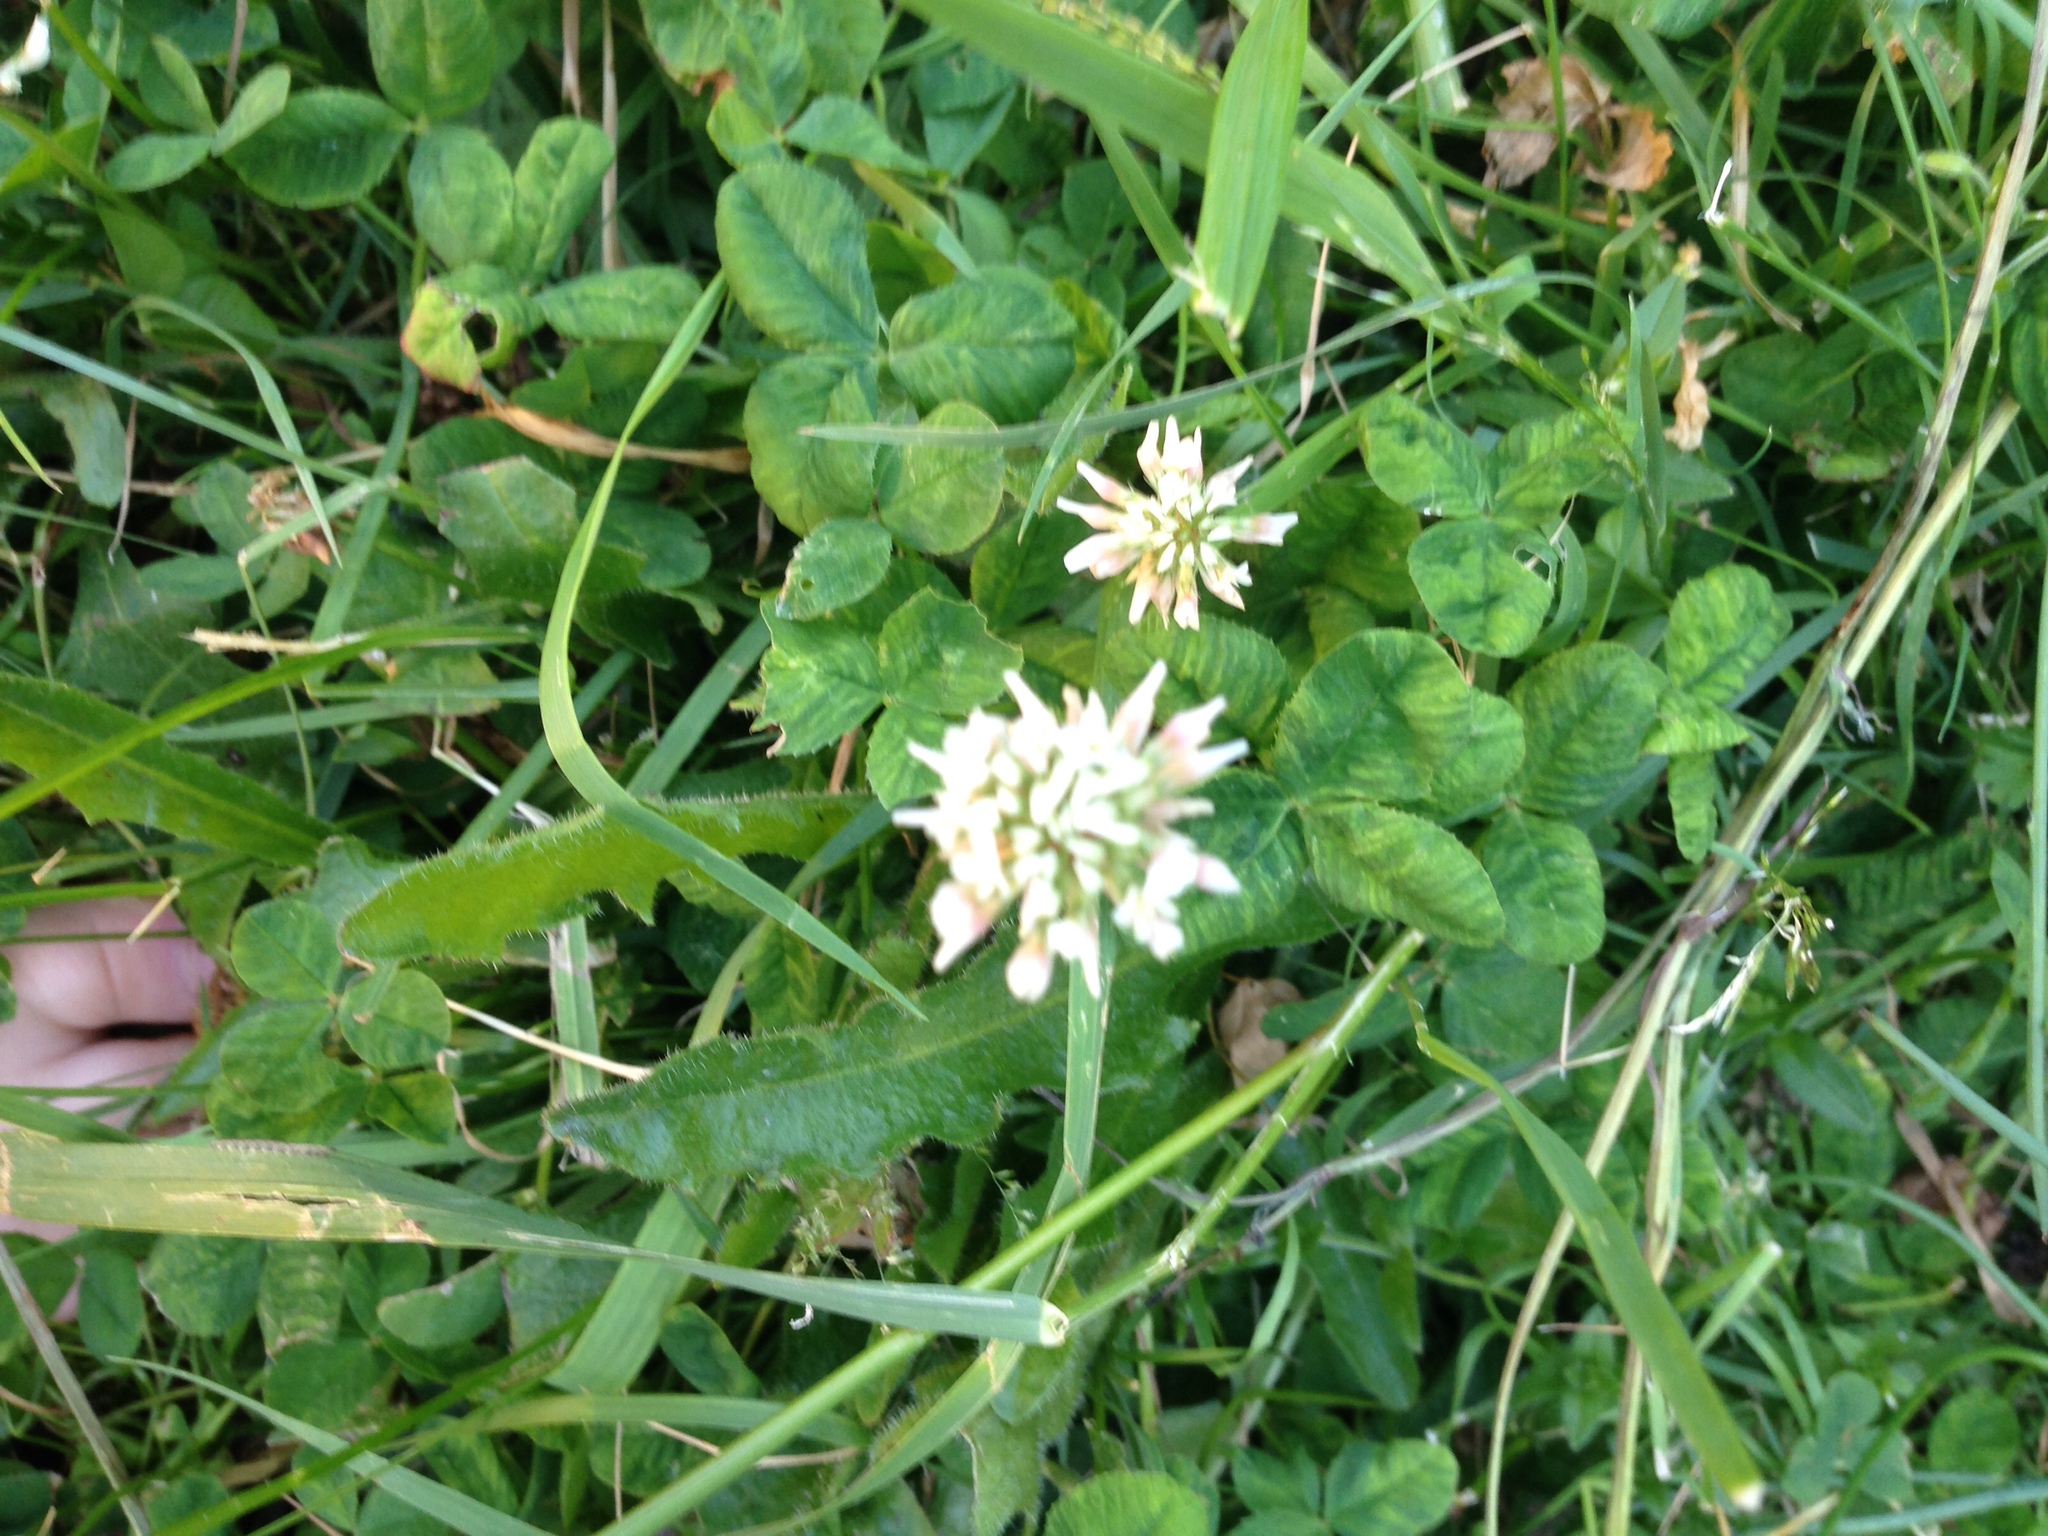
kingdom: Plantae
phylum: Tracheophyta
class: Magnoliopsida
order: Fabales
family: Fabaceae
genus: Trifolium
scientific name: Trifolium repens
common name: White clover
